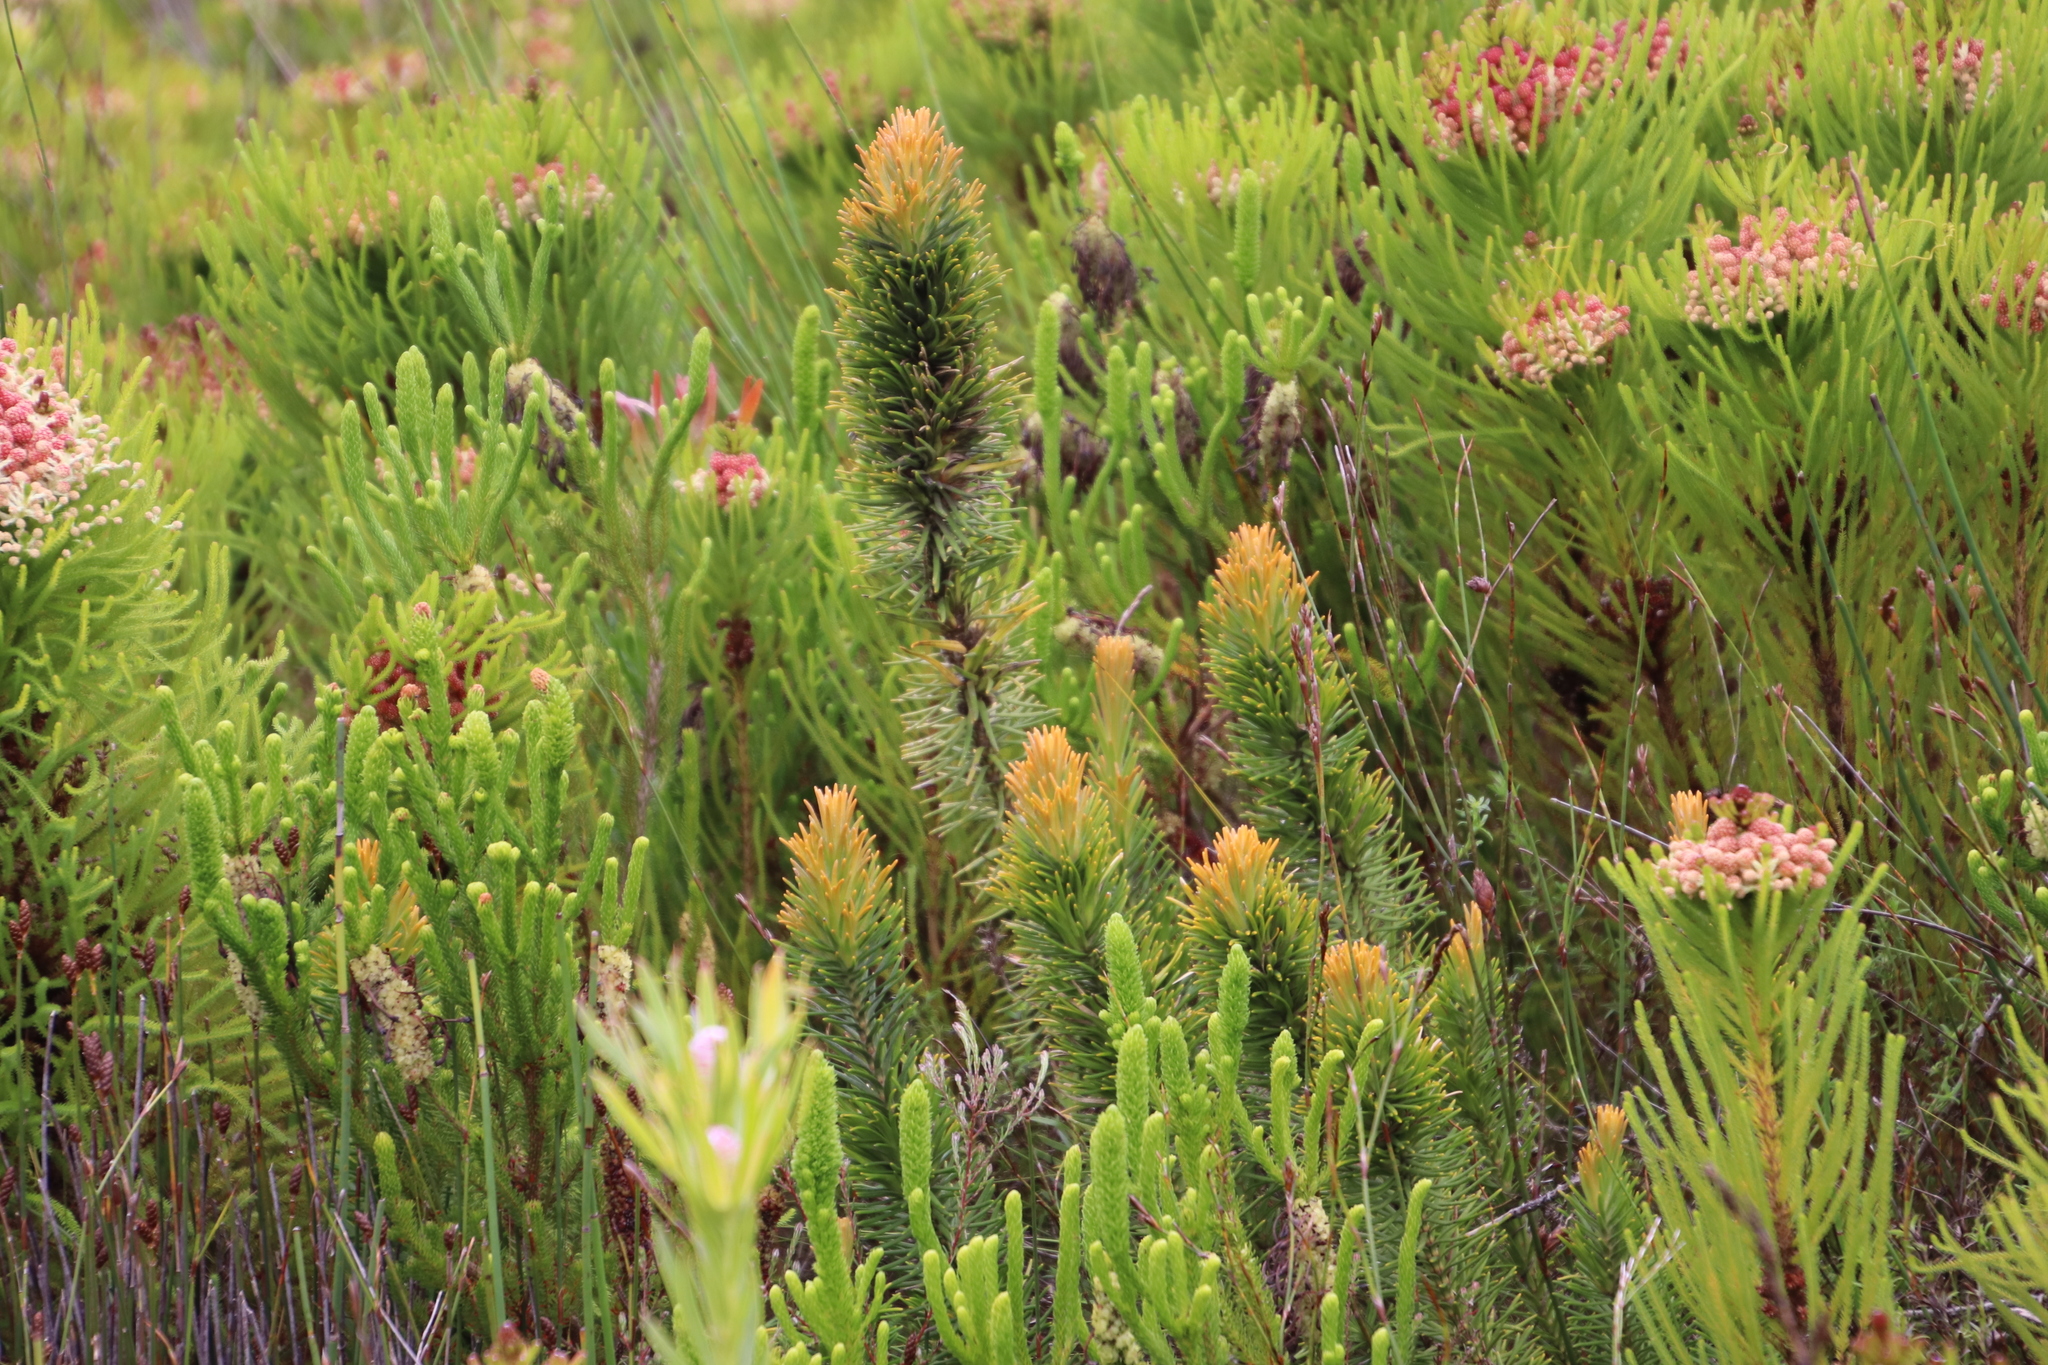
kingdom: Plantae
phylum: Tracheophyta
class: Magnoliopsida
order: Lamiales
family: Stilbaceae
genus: Retzia
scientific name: Retzia capensis
